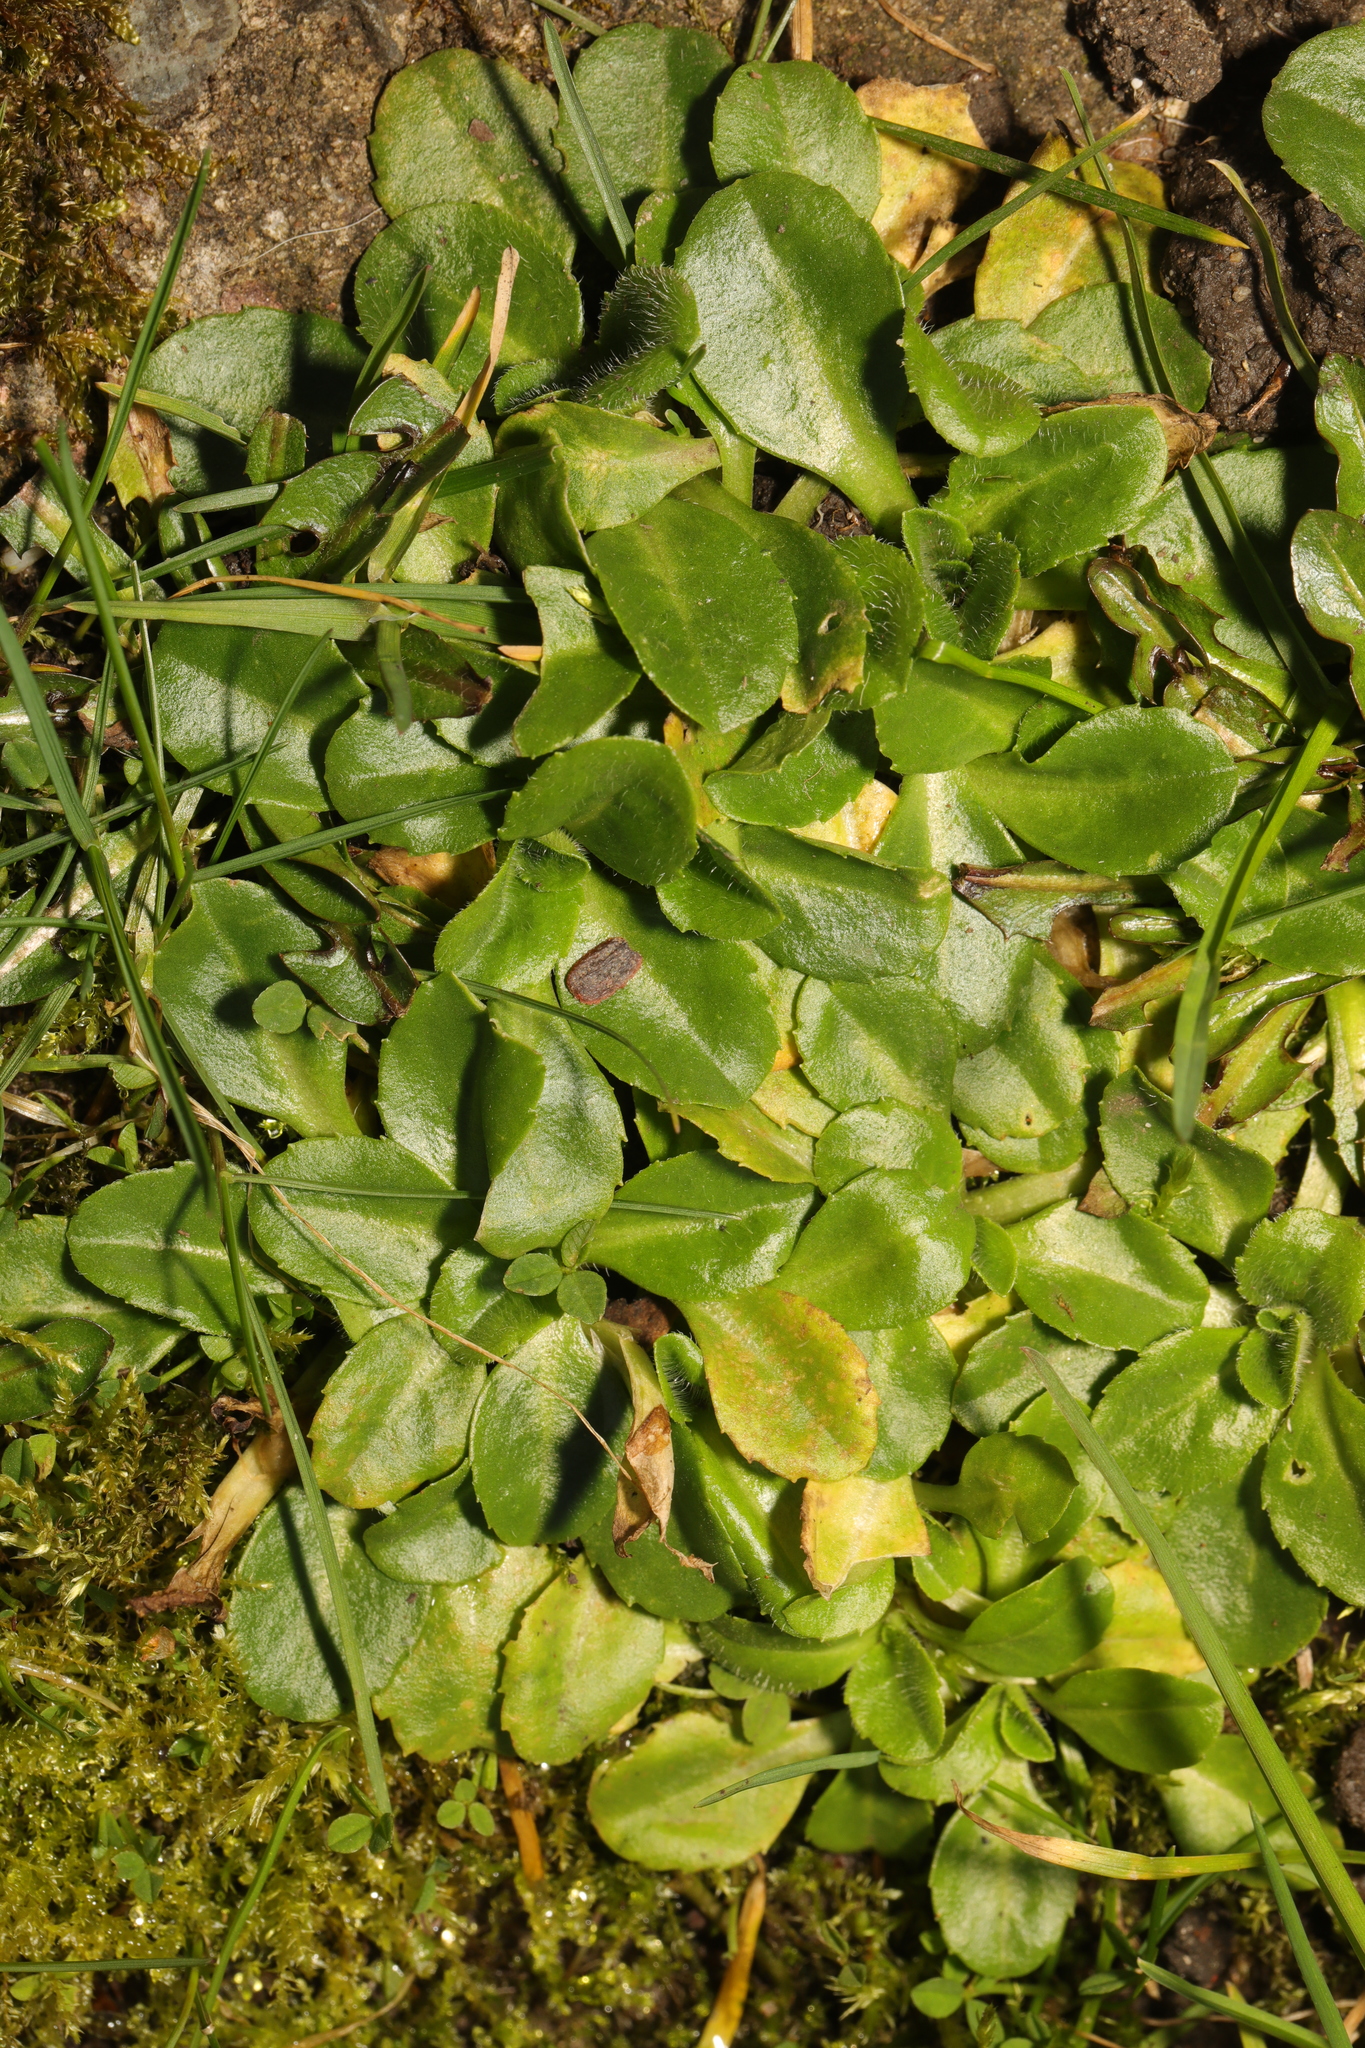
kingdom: Plantae
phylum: Tracheophyta
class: Magnoliopsida
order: Asterales
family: Asteraceae
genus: Bellis
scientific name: Bellis perennis
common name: Lawndaisy
